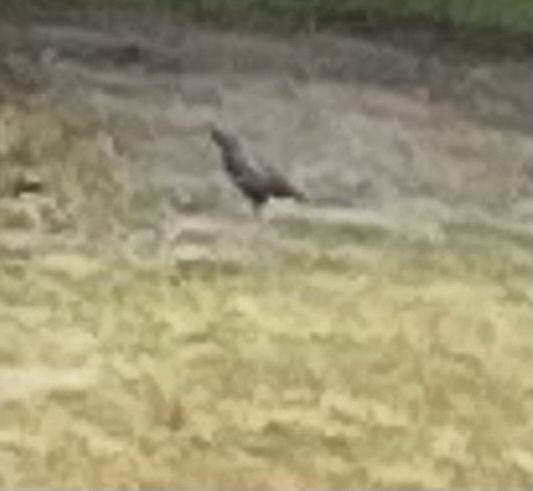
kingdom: Animalia
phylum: Chordata
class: Aves
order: Galliformes
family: Odontophoridae
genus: Callipepla
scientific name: Callipepla californica
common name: California quail
